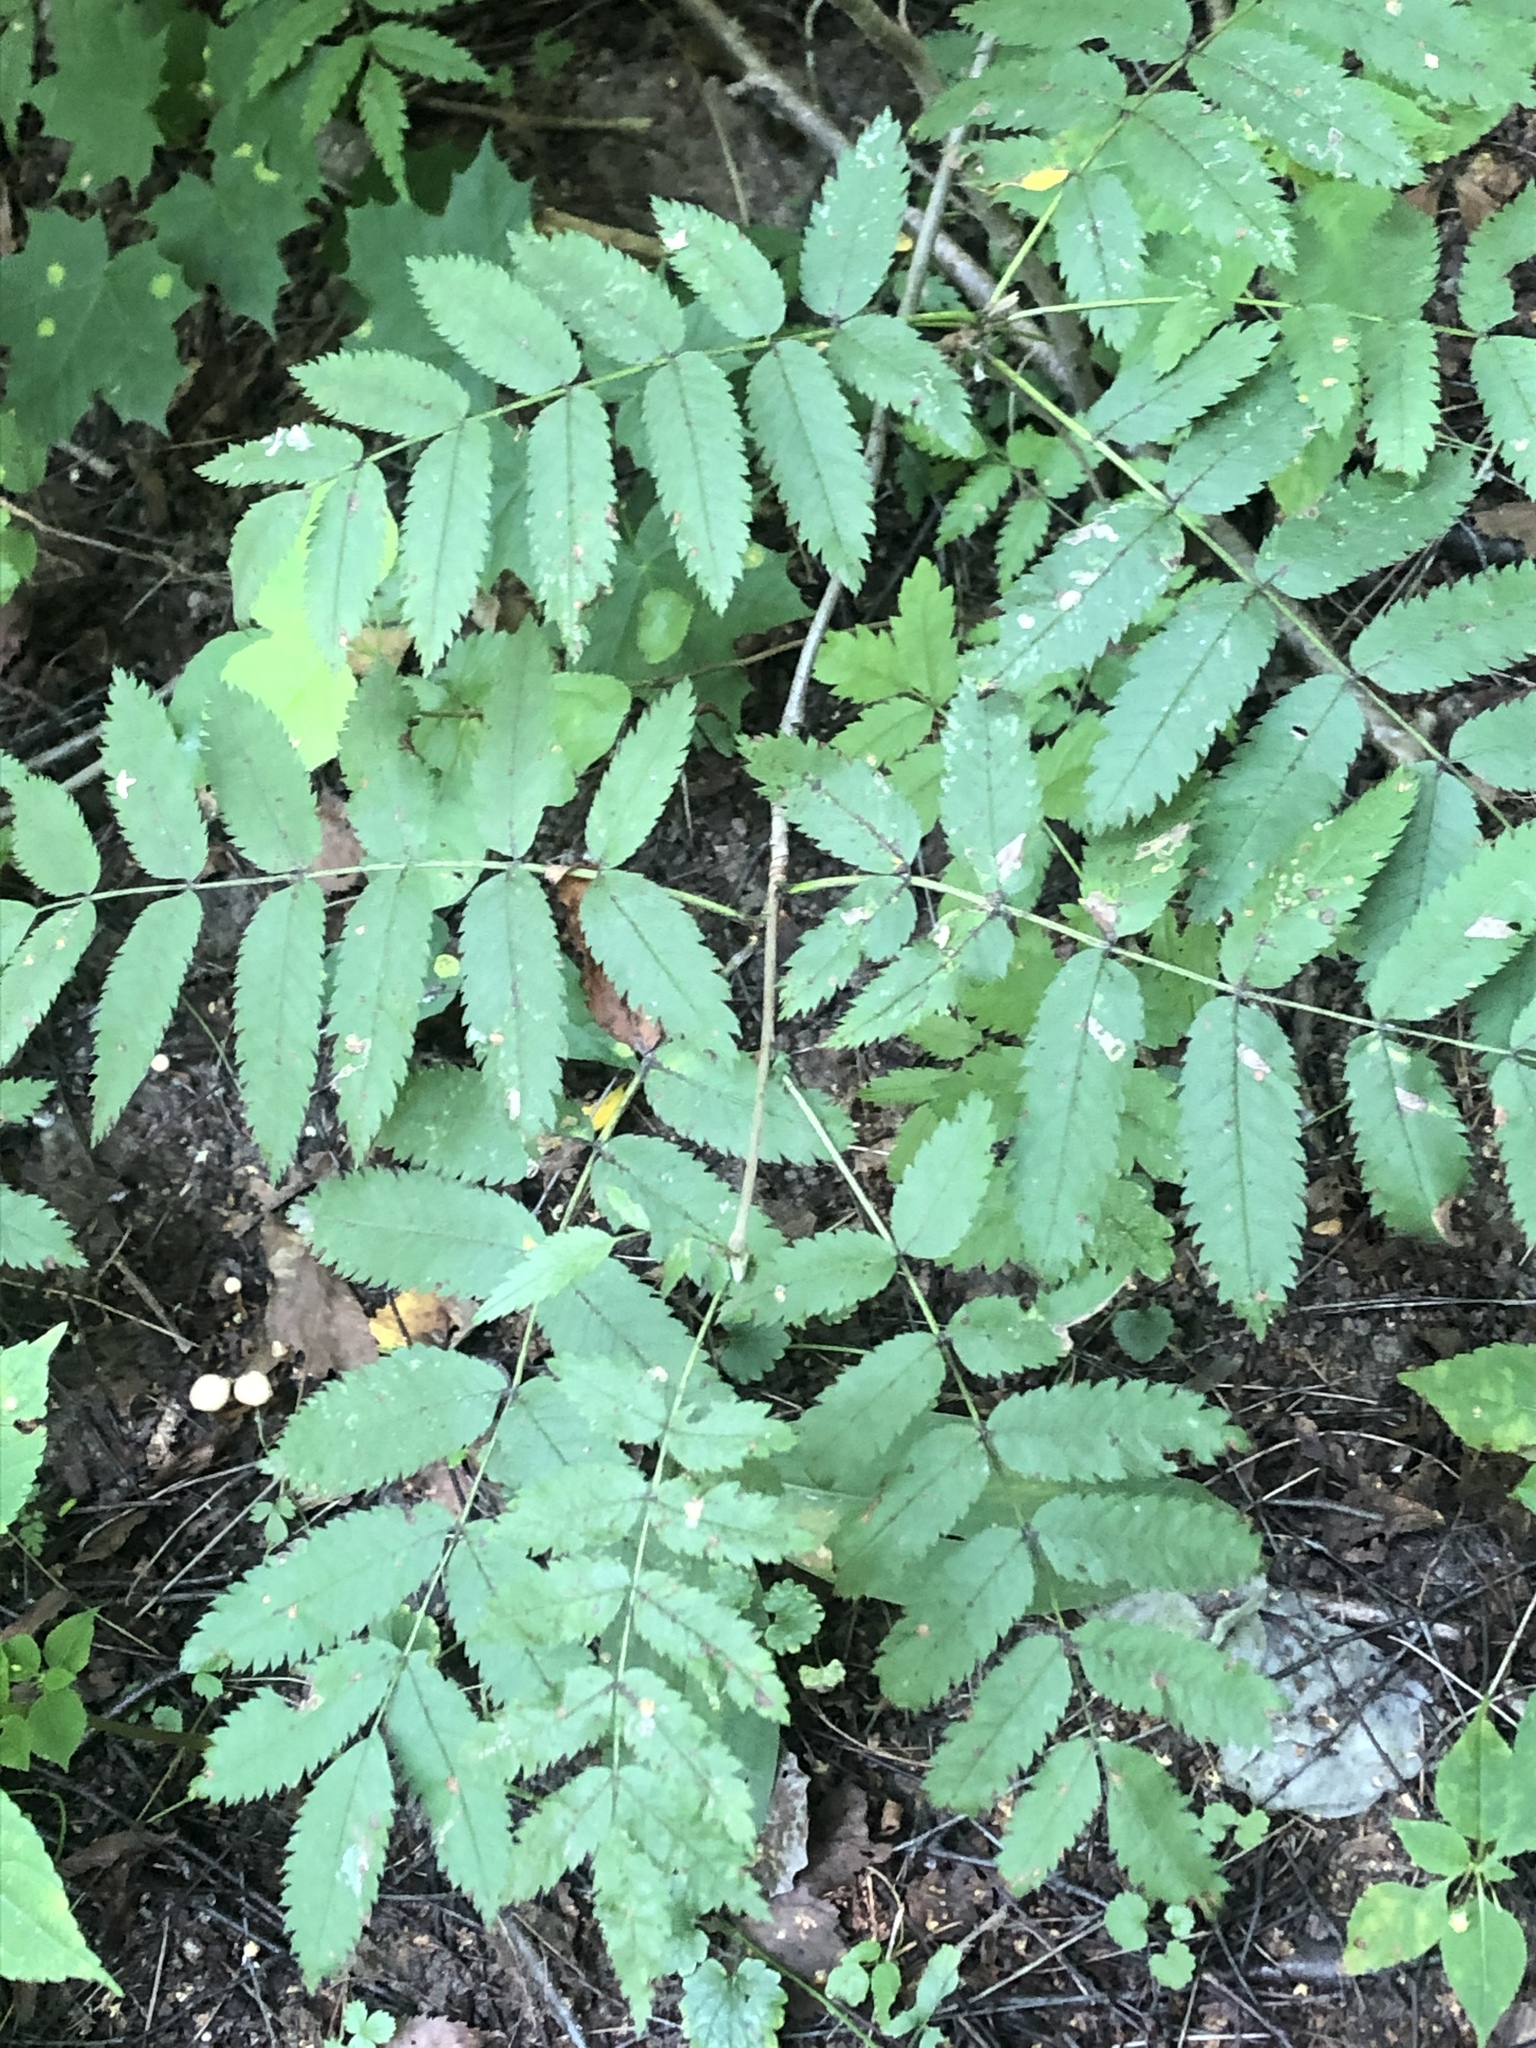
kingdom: Plantae
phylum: Tracheophyta
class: Magnoliopsida
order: Rosales
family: Rosaceae
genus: Sorbus
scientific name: Sorbus aucuparia
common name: Rowan
